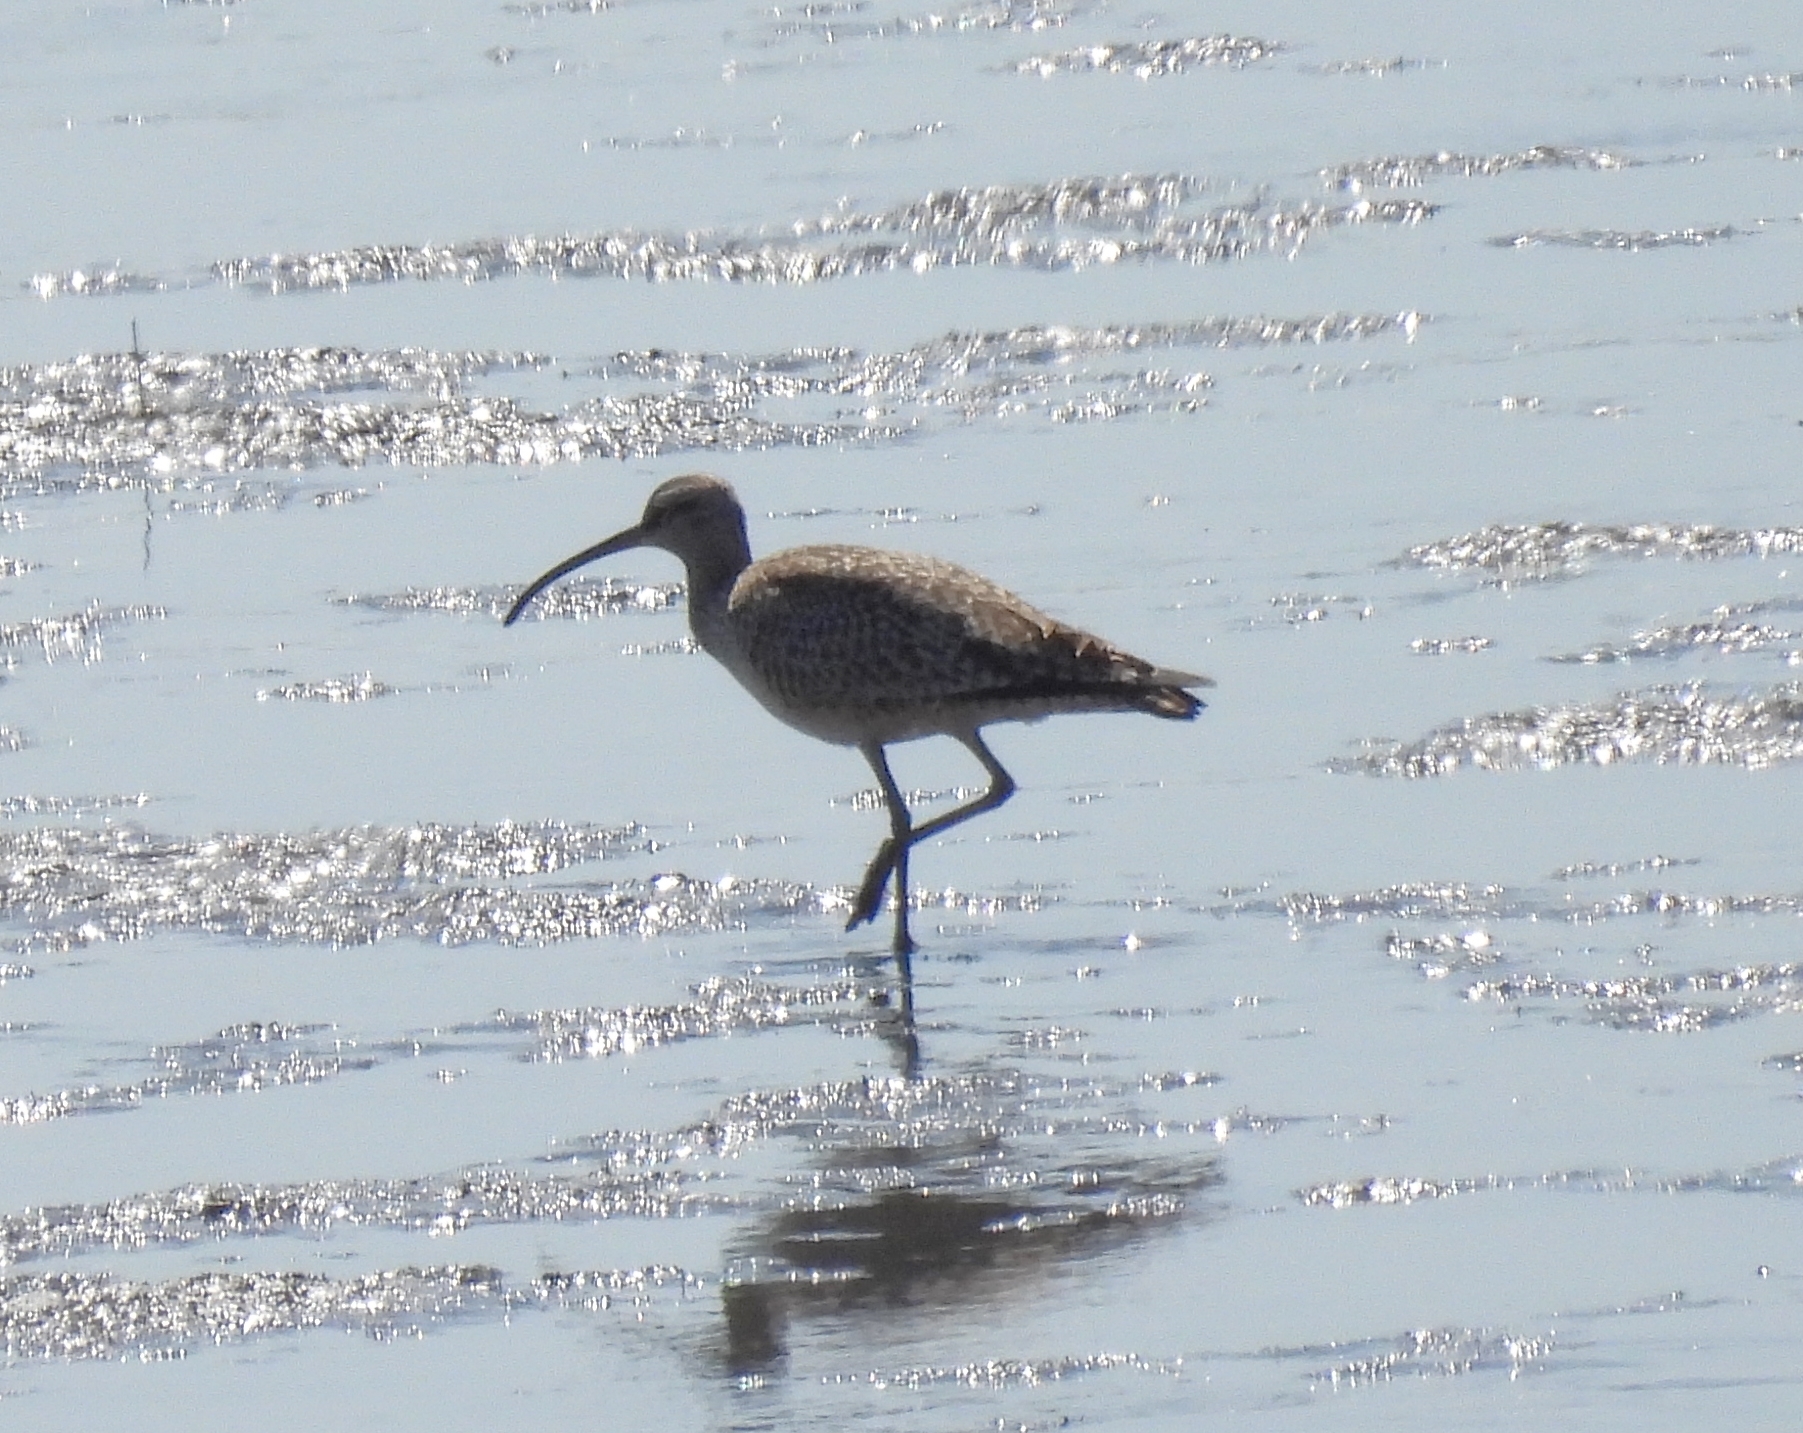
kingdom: Animalia
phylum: Chordata
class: Aves
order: Charadriiformes
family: Scolopacidae
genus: Numenius
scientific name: Numenius phaeopus
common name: Whimbrel
